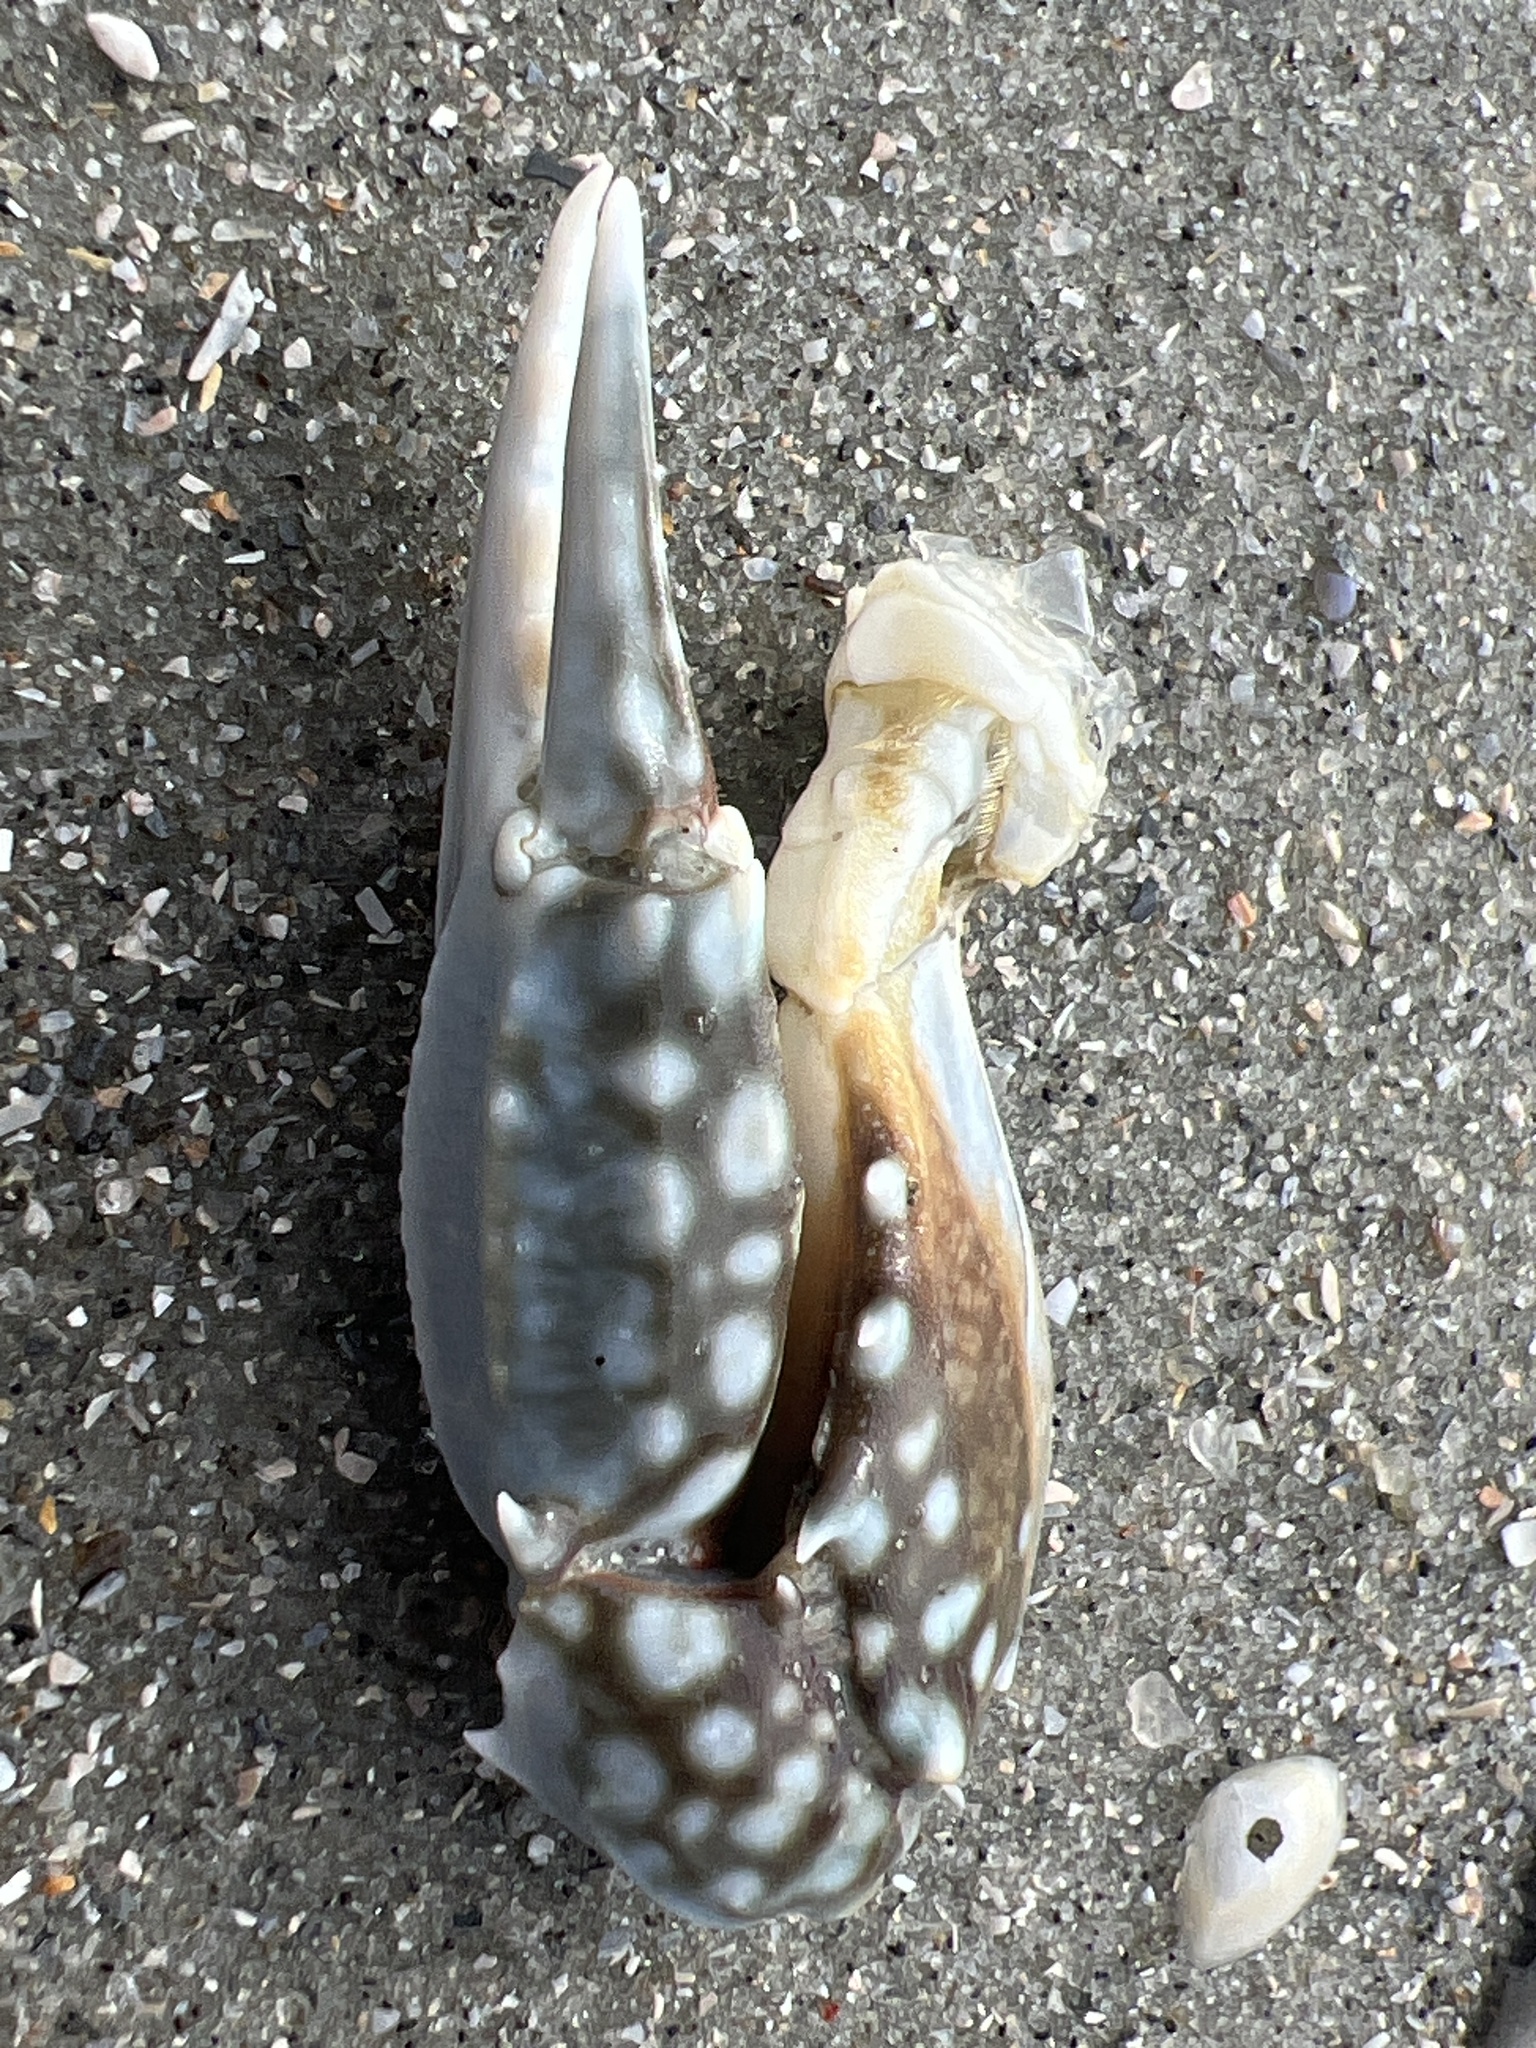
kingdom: Animalia
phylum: Arthropoda
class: Malacostraca
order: Decapoda
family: Portunidae
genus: Arenaeus
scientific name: Arenaeus cribrarius
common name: Speckled crab
